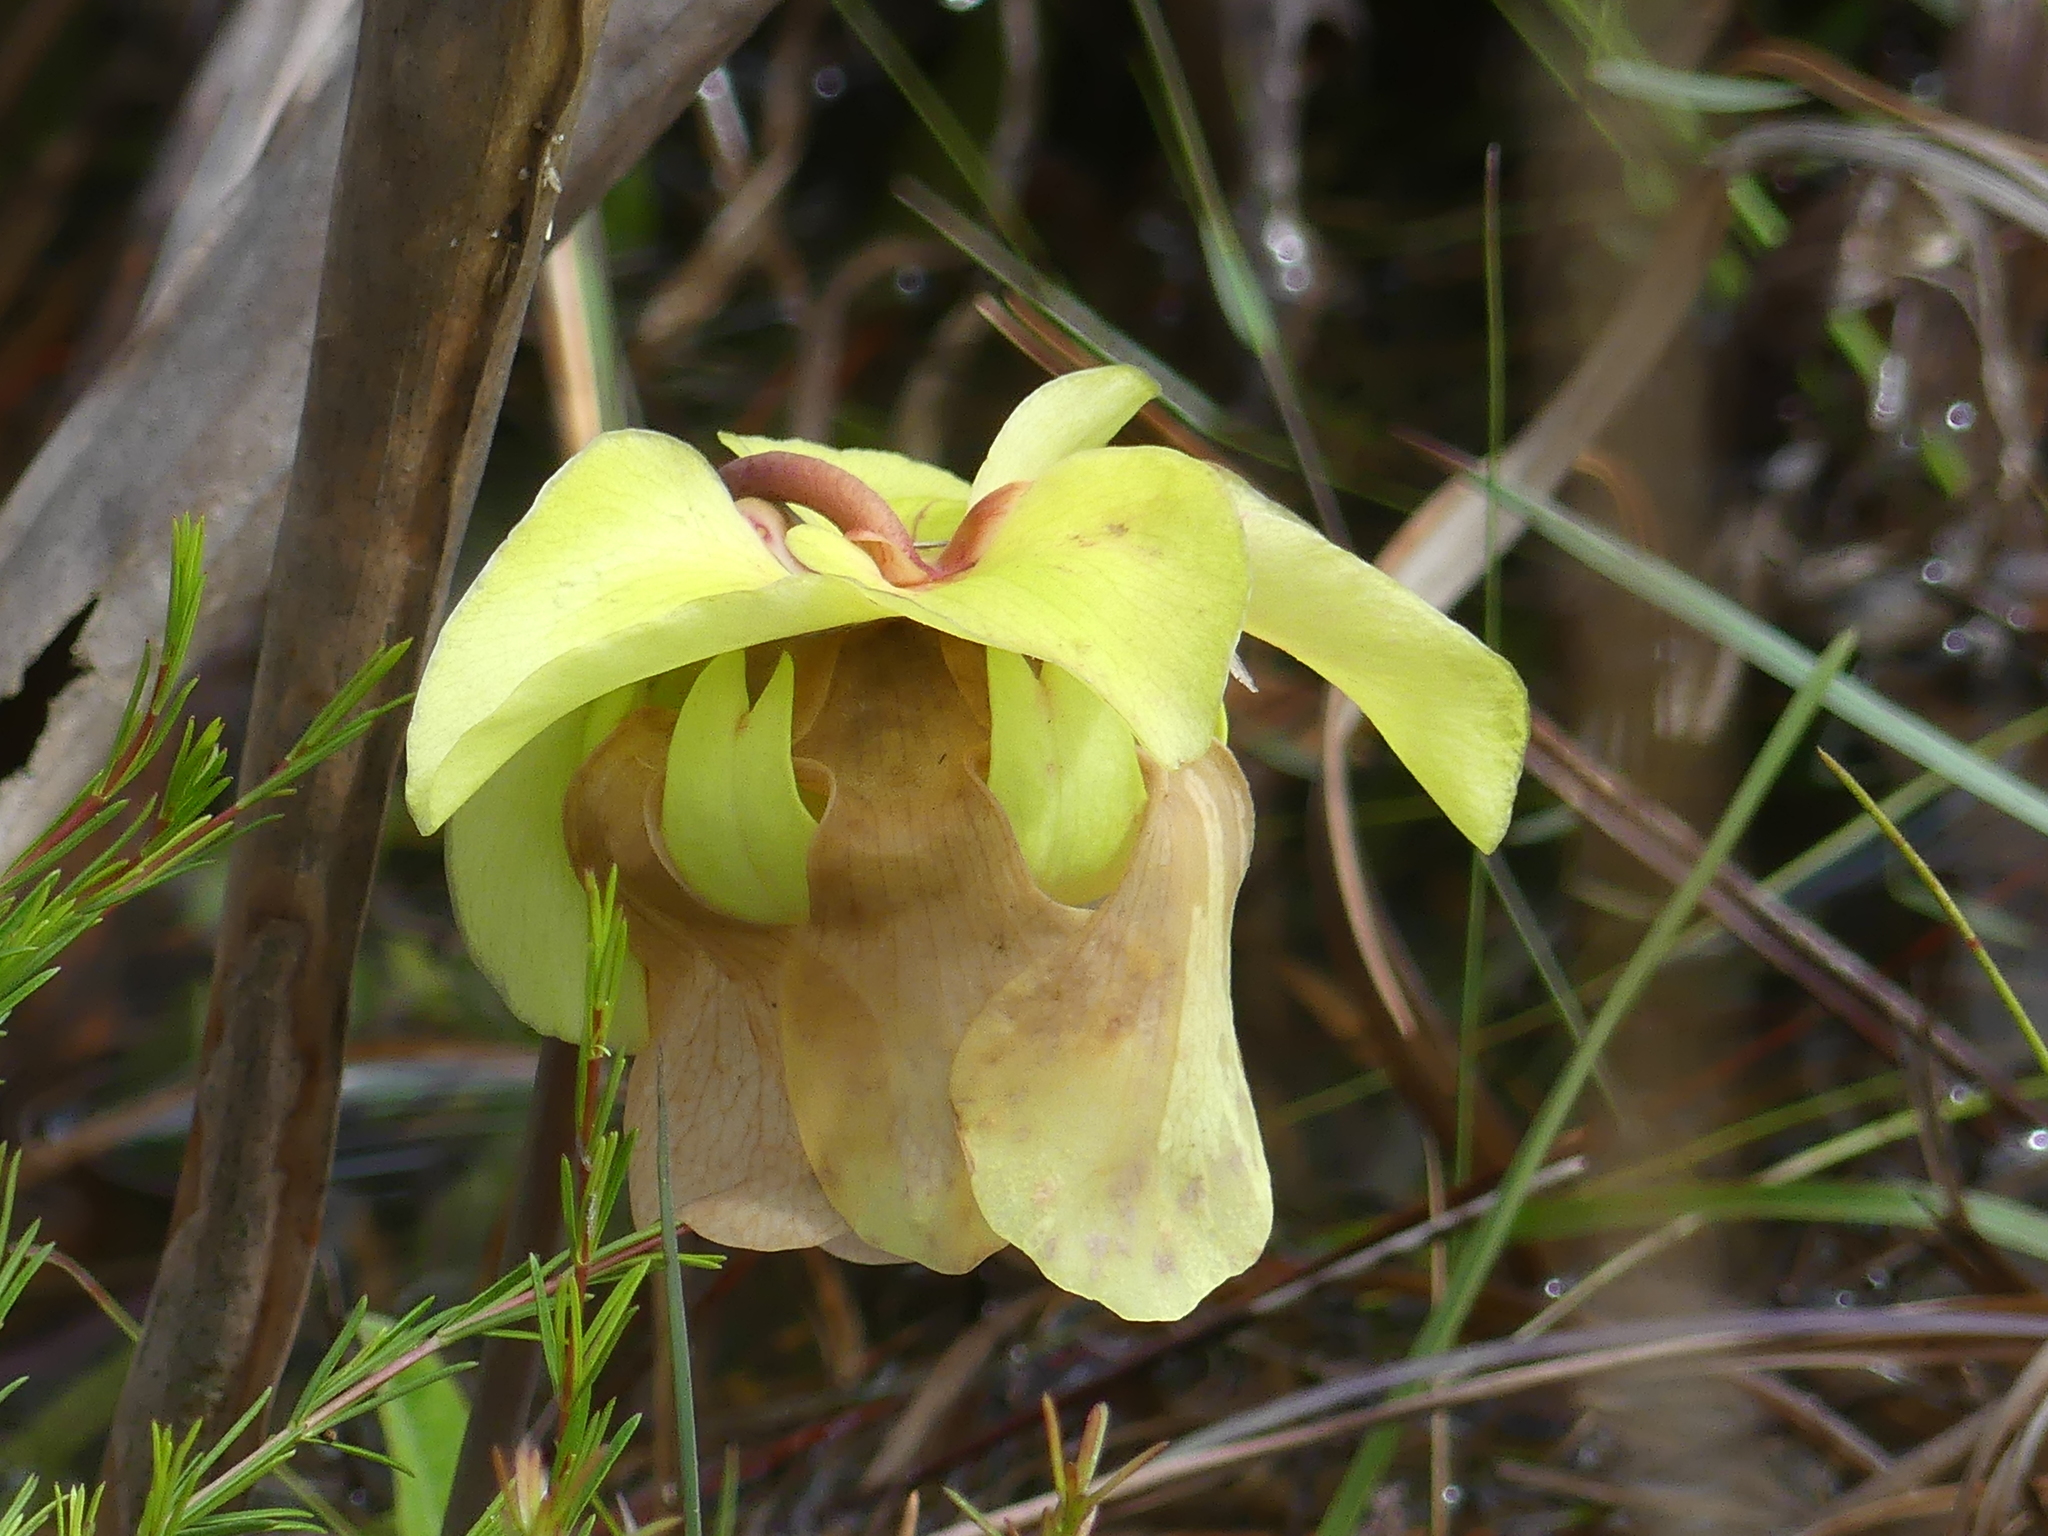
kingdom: Plantae
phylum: Tracheophyta
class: Magnoliopsida
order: Ericales
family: Sarraceniaceae
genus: Sarracenia
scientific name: Sarracenia alata
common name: Yellow trumpets
